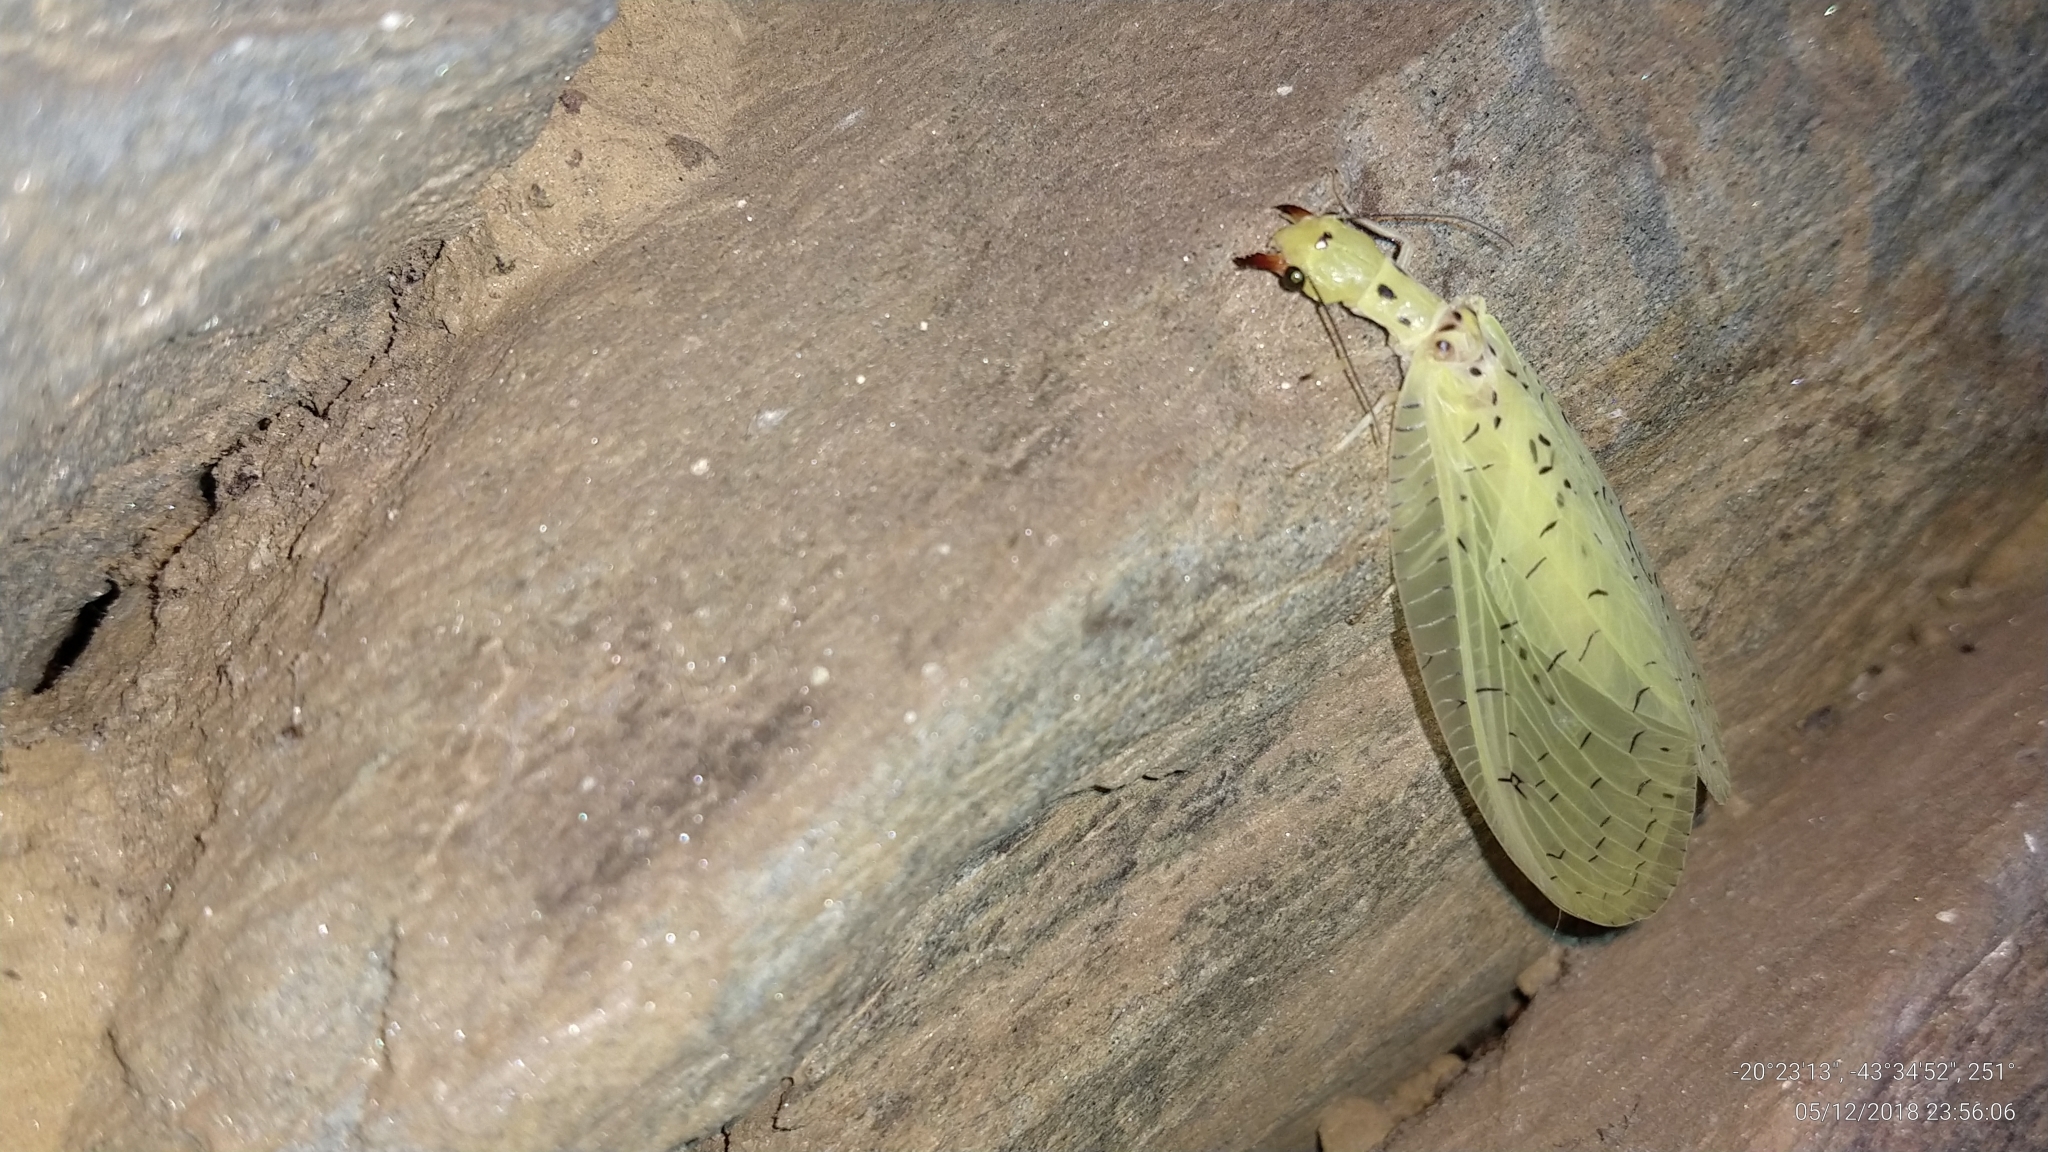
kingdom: Animalia
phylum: Arthropoda
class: Insecta
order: Megaloptera
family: Corydalidae
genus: Chloronia
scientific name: Chloronia corripiens
